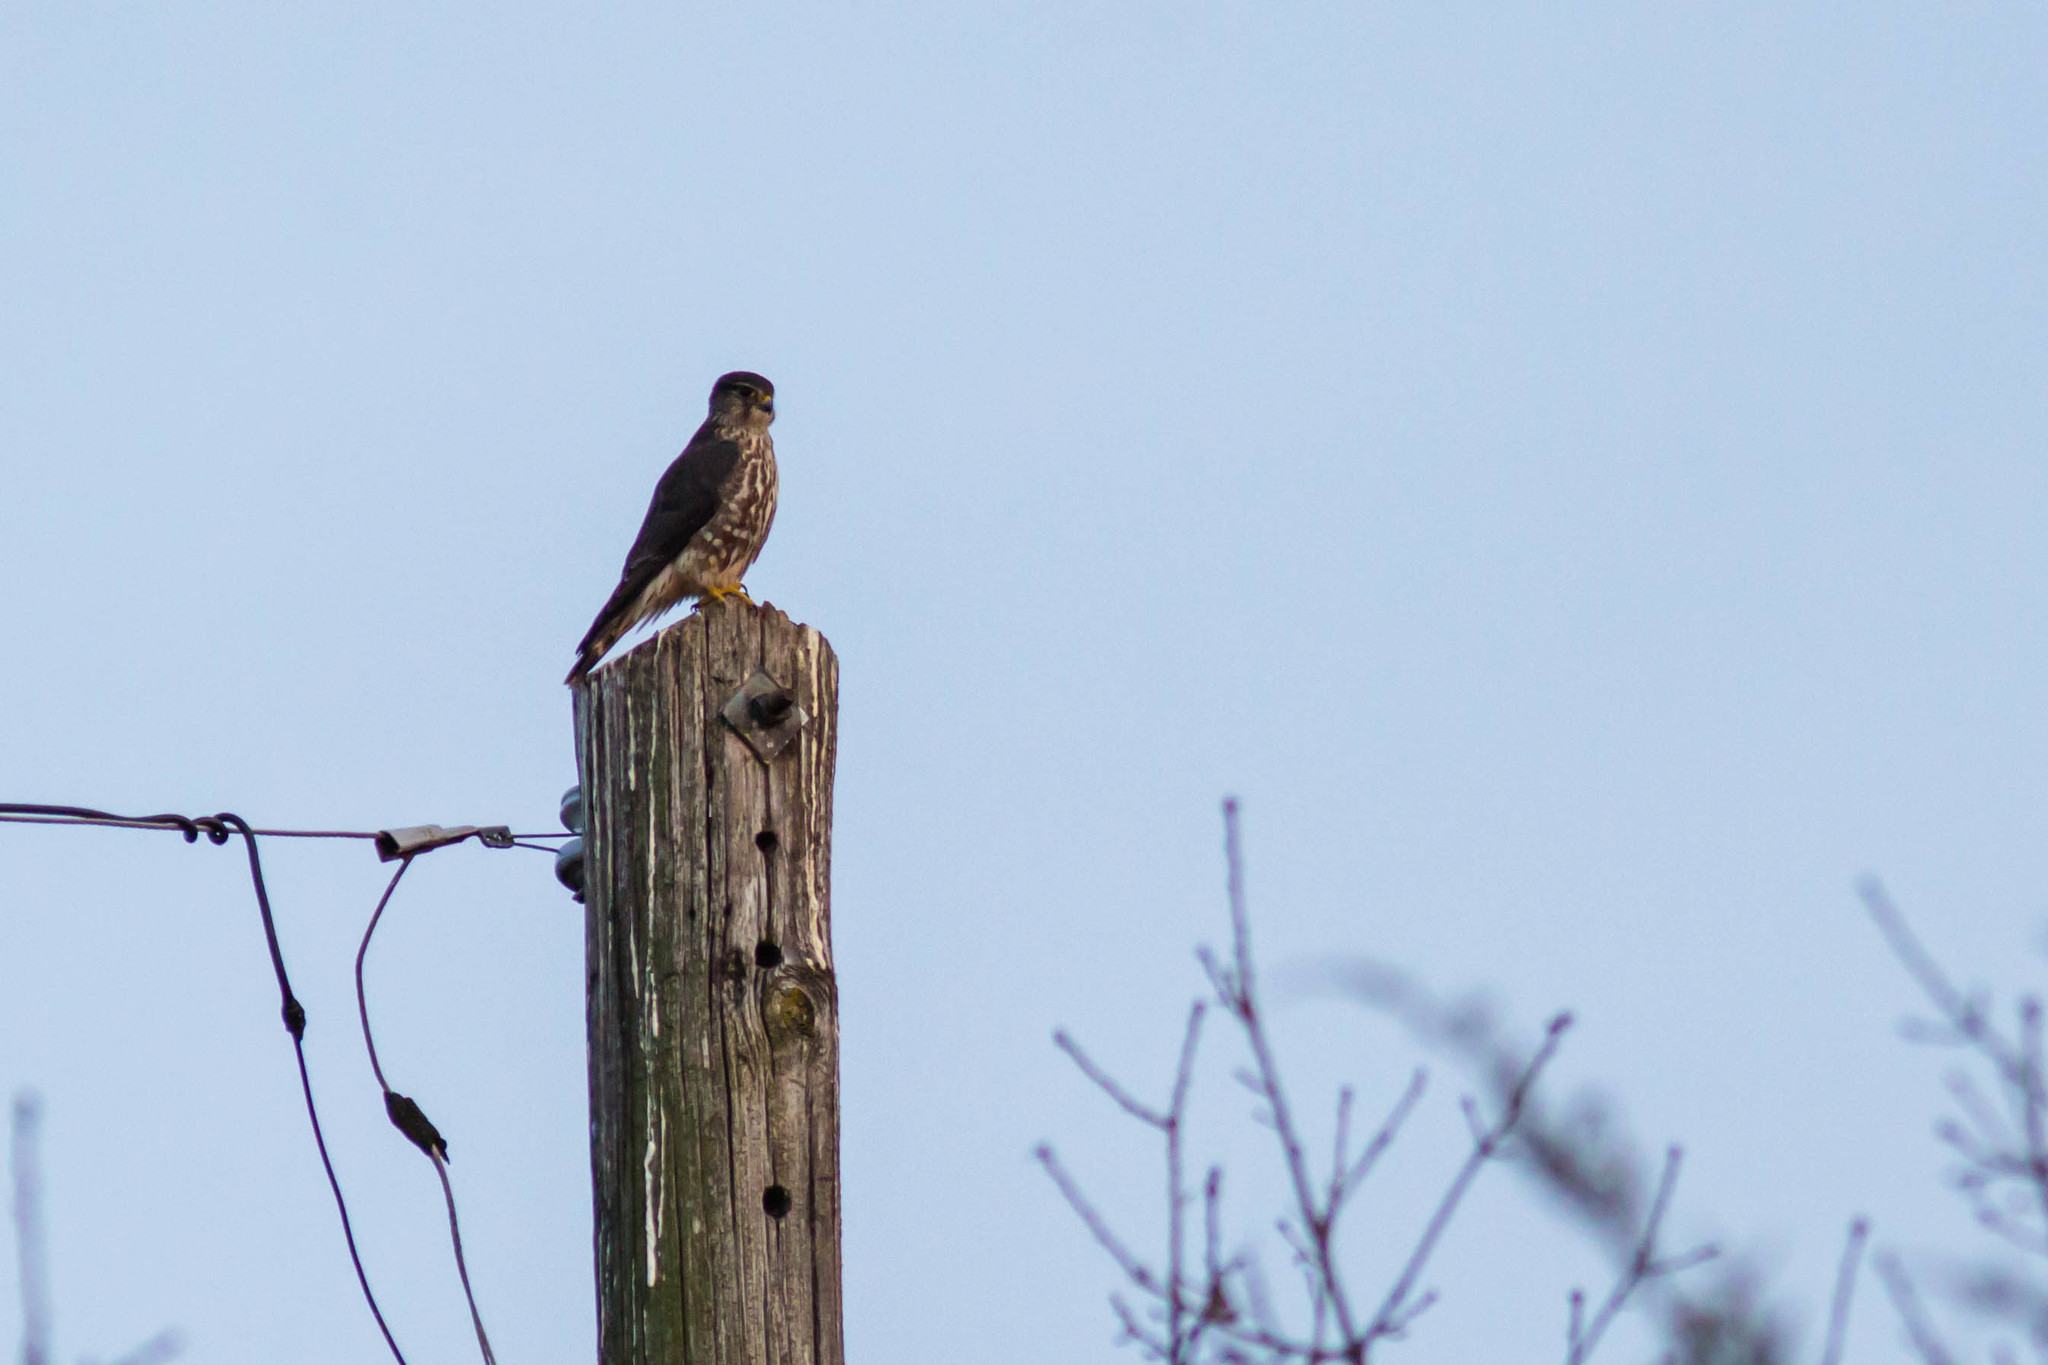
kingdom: Animalia
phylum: Chordata
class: Aves
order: Falconiformes
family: Falconidae
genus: Falco
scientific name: Falco columbarius
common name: Merlin
